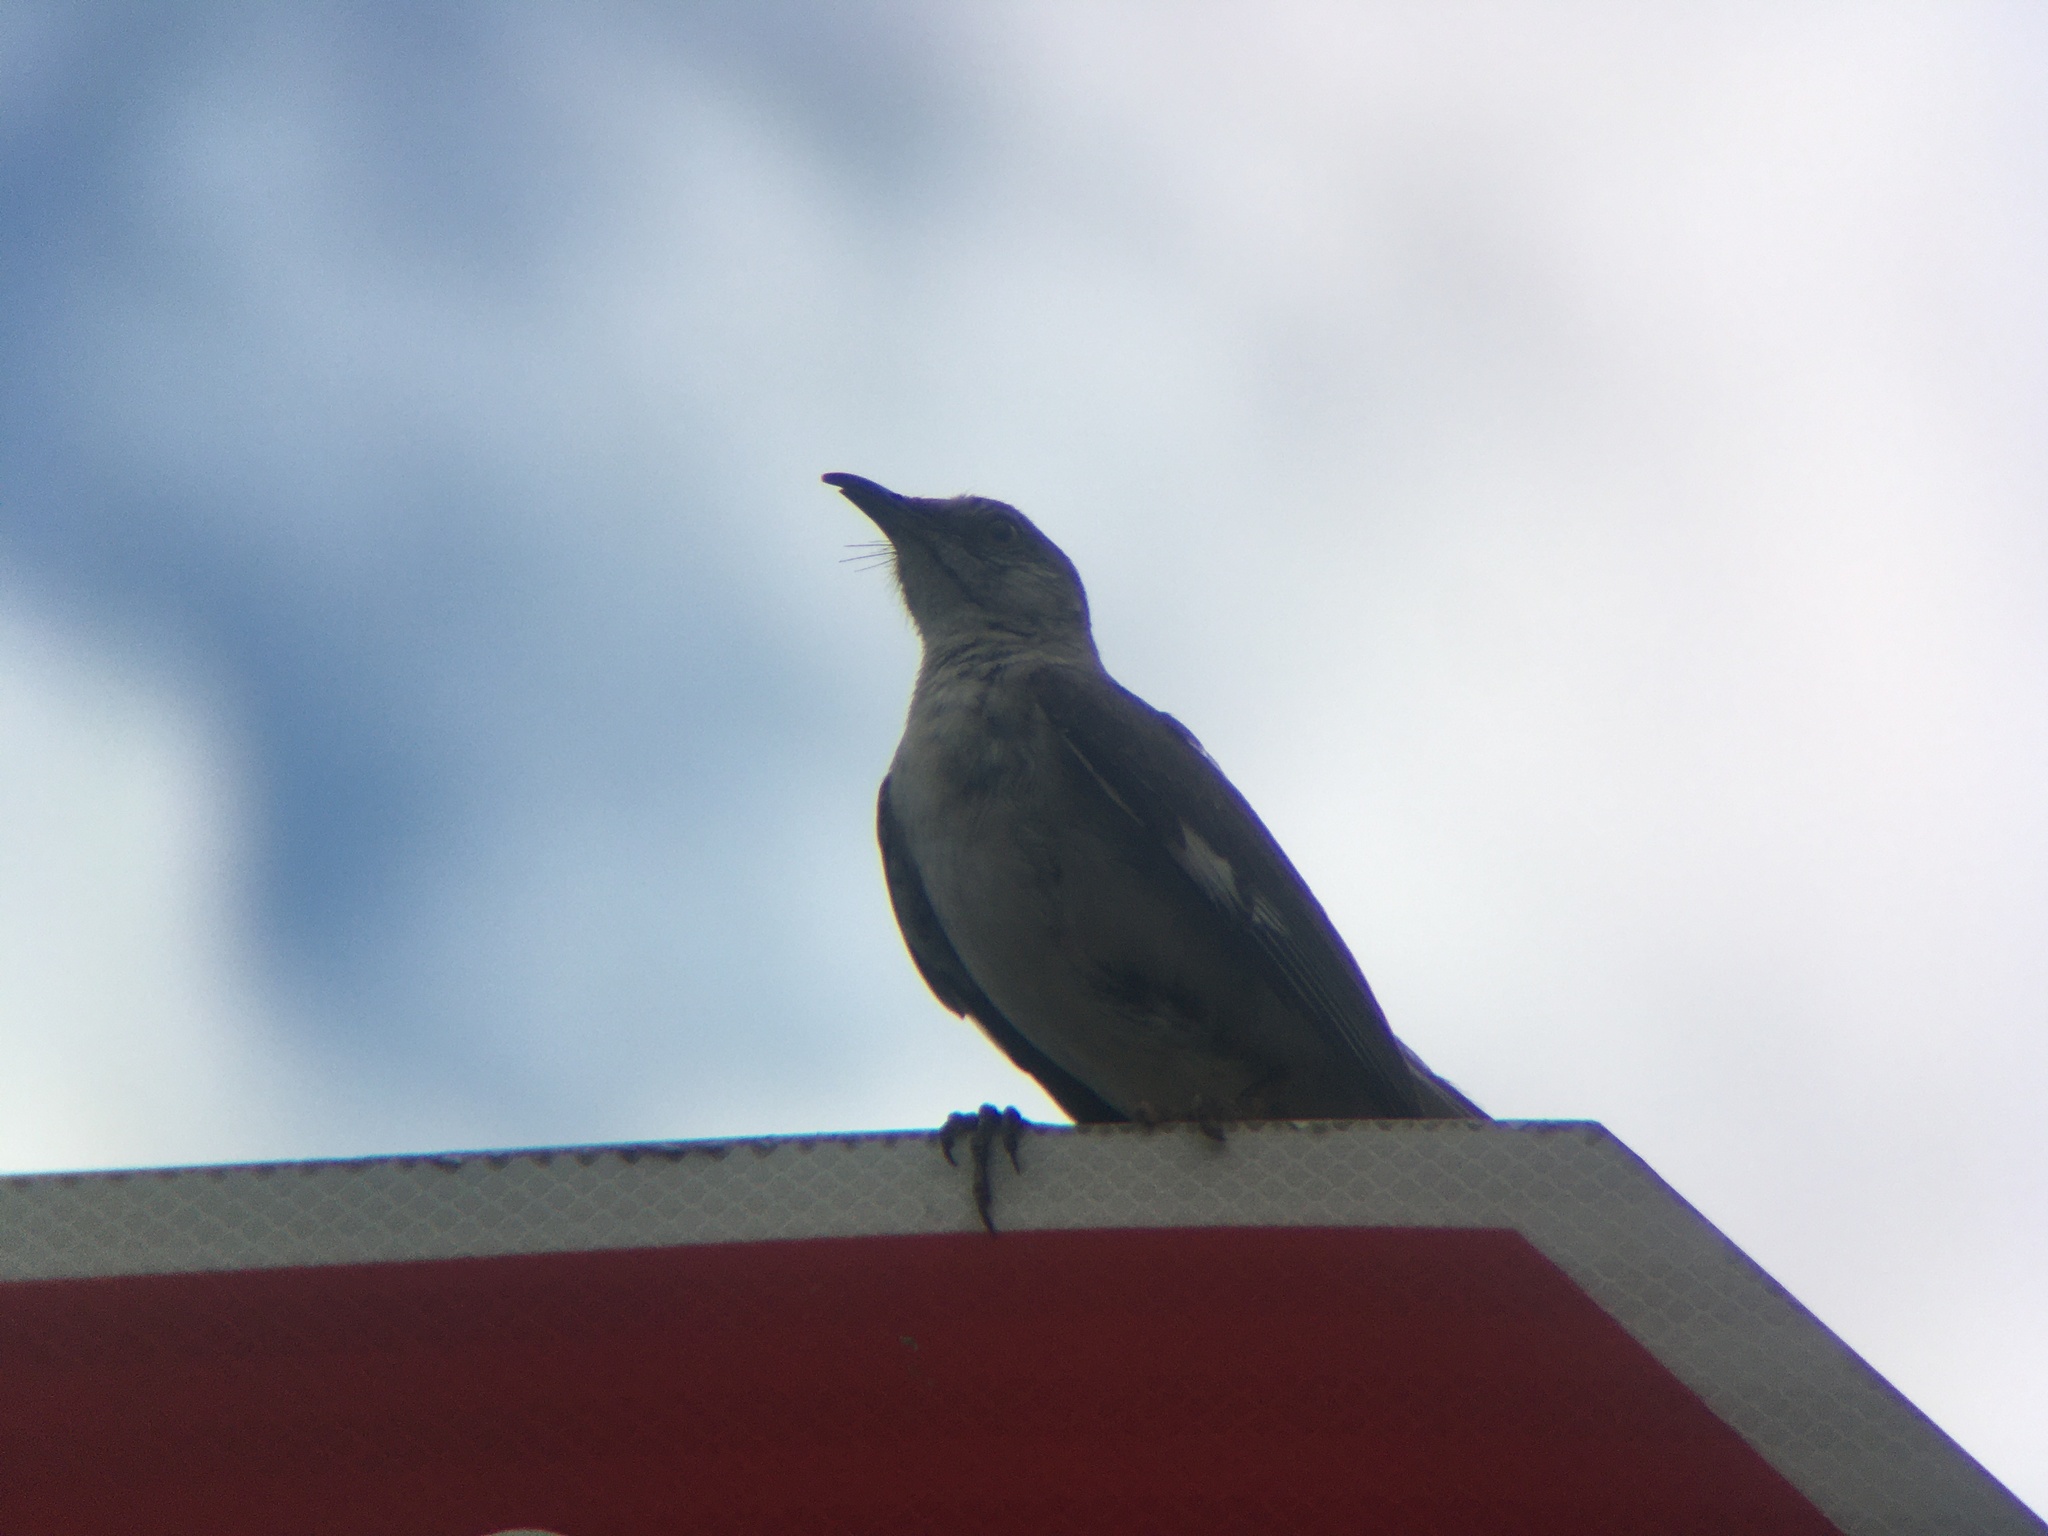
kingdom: Animalia
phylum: Chordata
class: Aves
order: Passeriformes
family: Mimidae
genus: Mimus
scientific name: Mimus polyglottos
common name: Northern mockingbird
